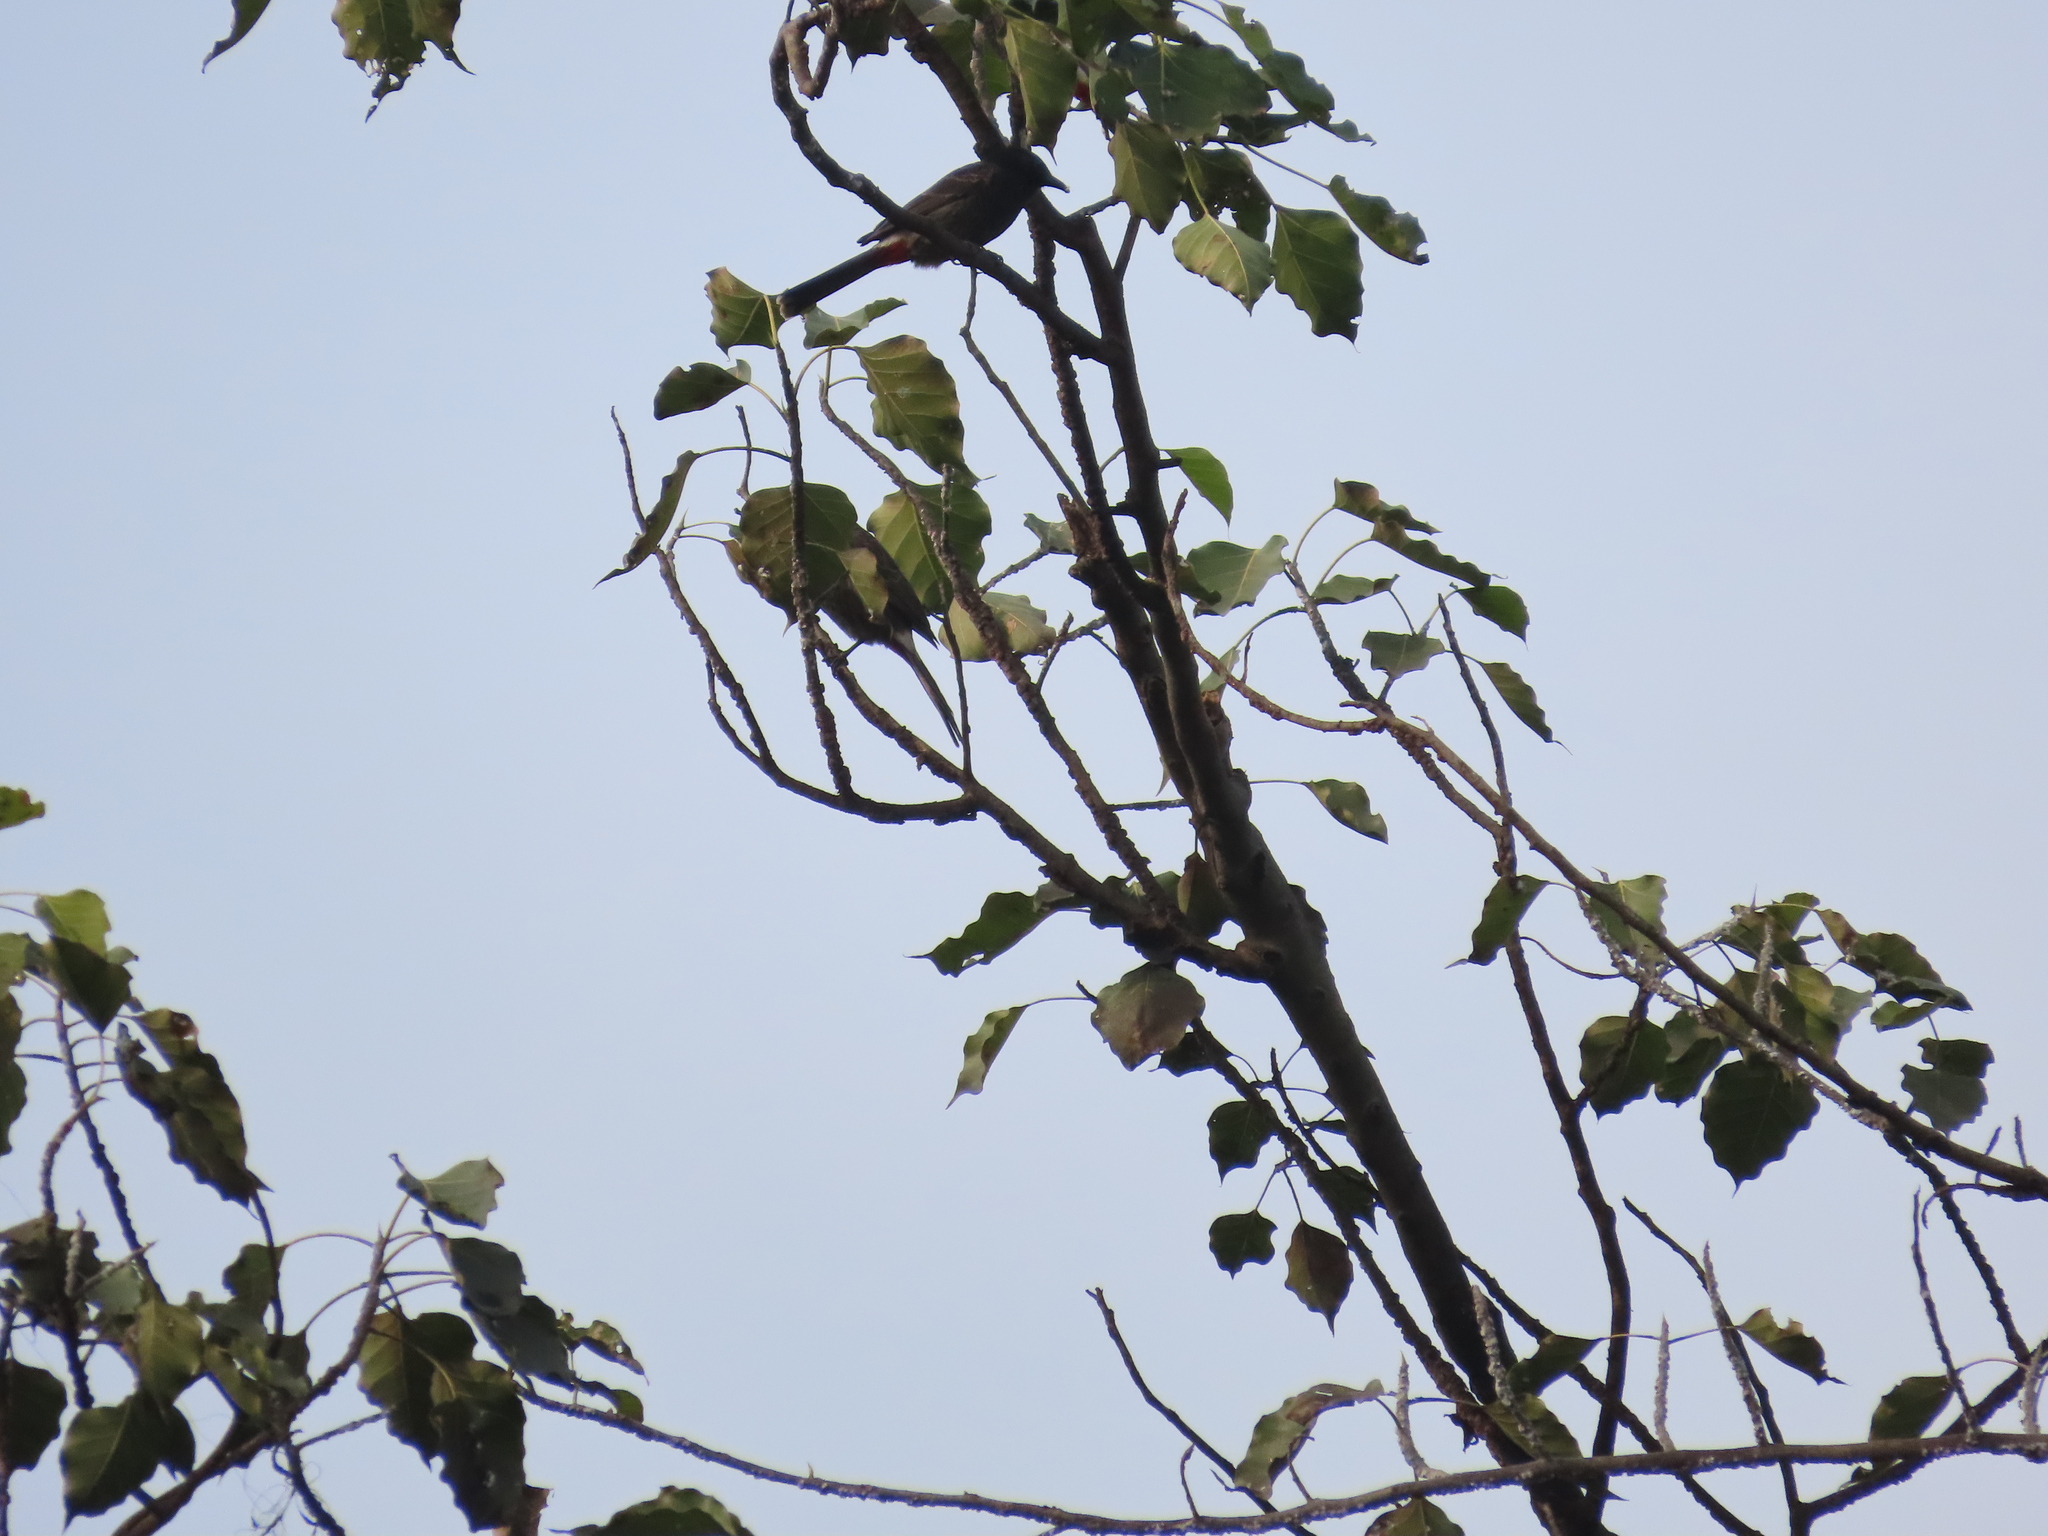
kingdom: Animalia
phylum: Chordata
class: Aves
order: Passeriformes
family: Pycnonotidae
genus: Pycnonotus
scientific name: Pycnonotus cafer
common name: Red-vented bulbul
